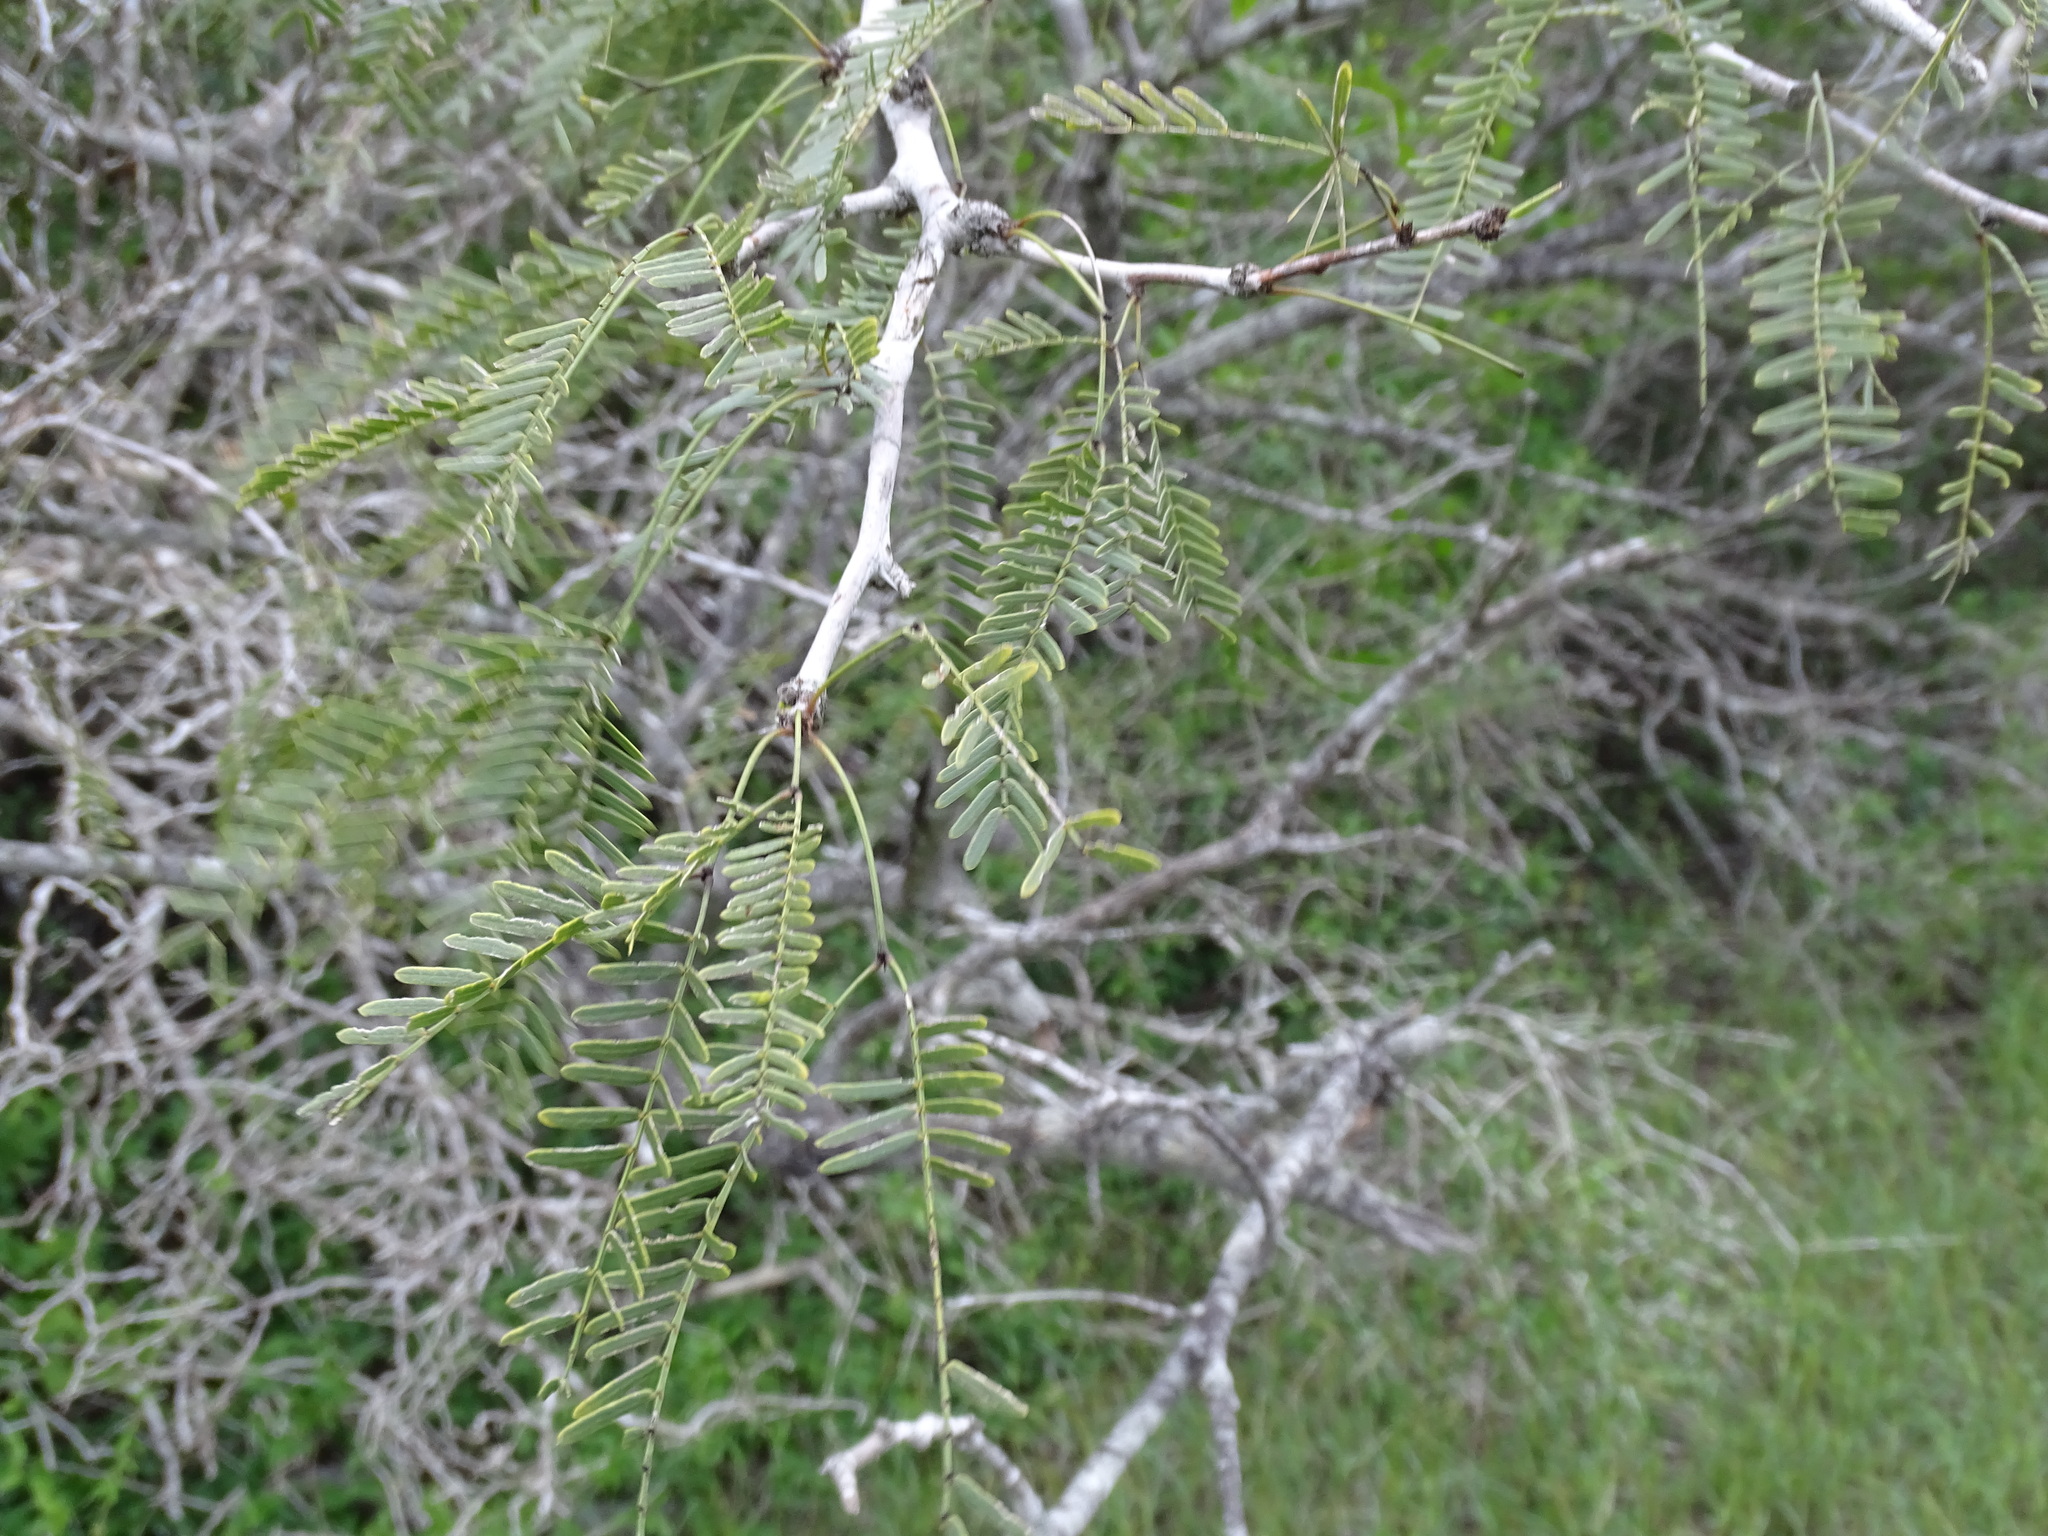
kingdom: Plantae
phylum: Tracheophyta
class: Magnoliopsida
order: Fabales
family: Fabaceae
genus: Prosopis
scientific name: Prosopis glandulosa
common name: Honey mesquite
